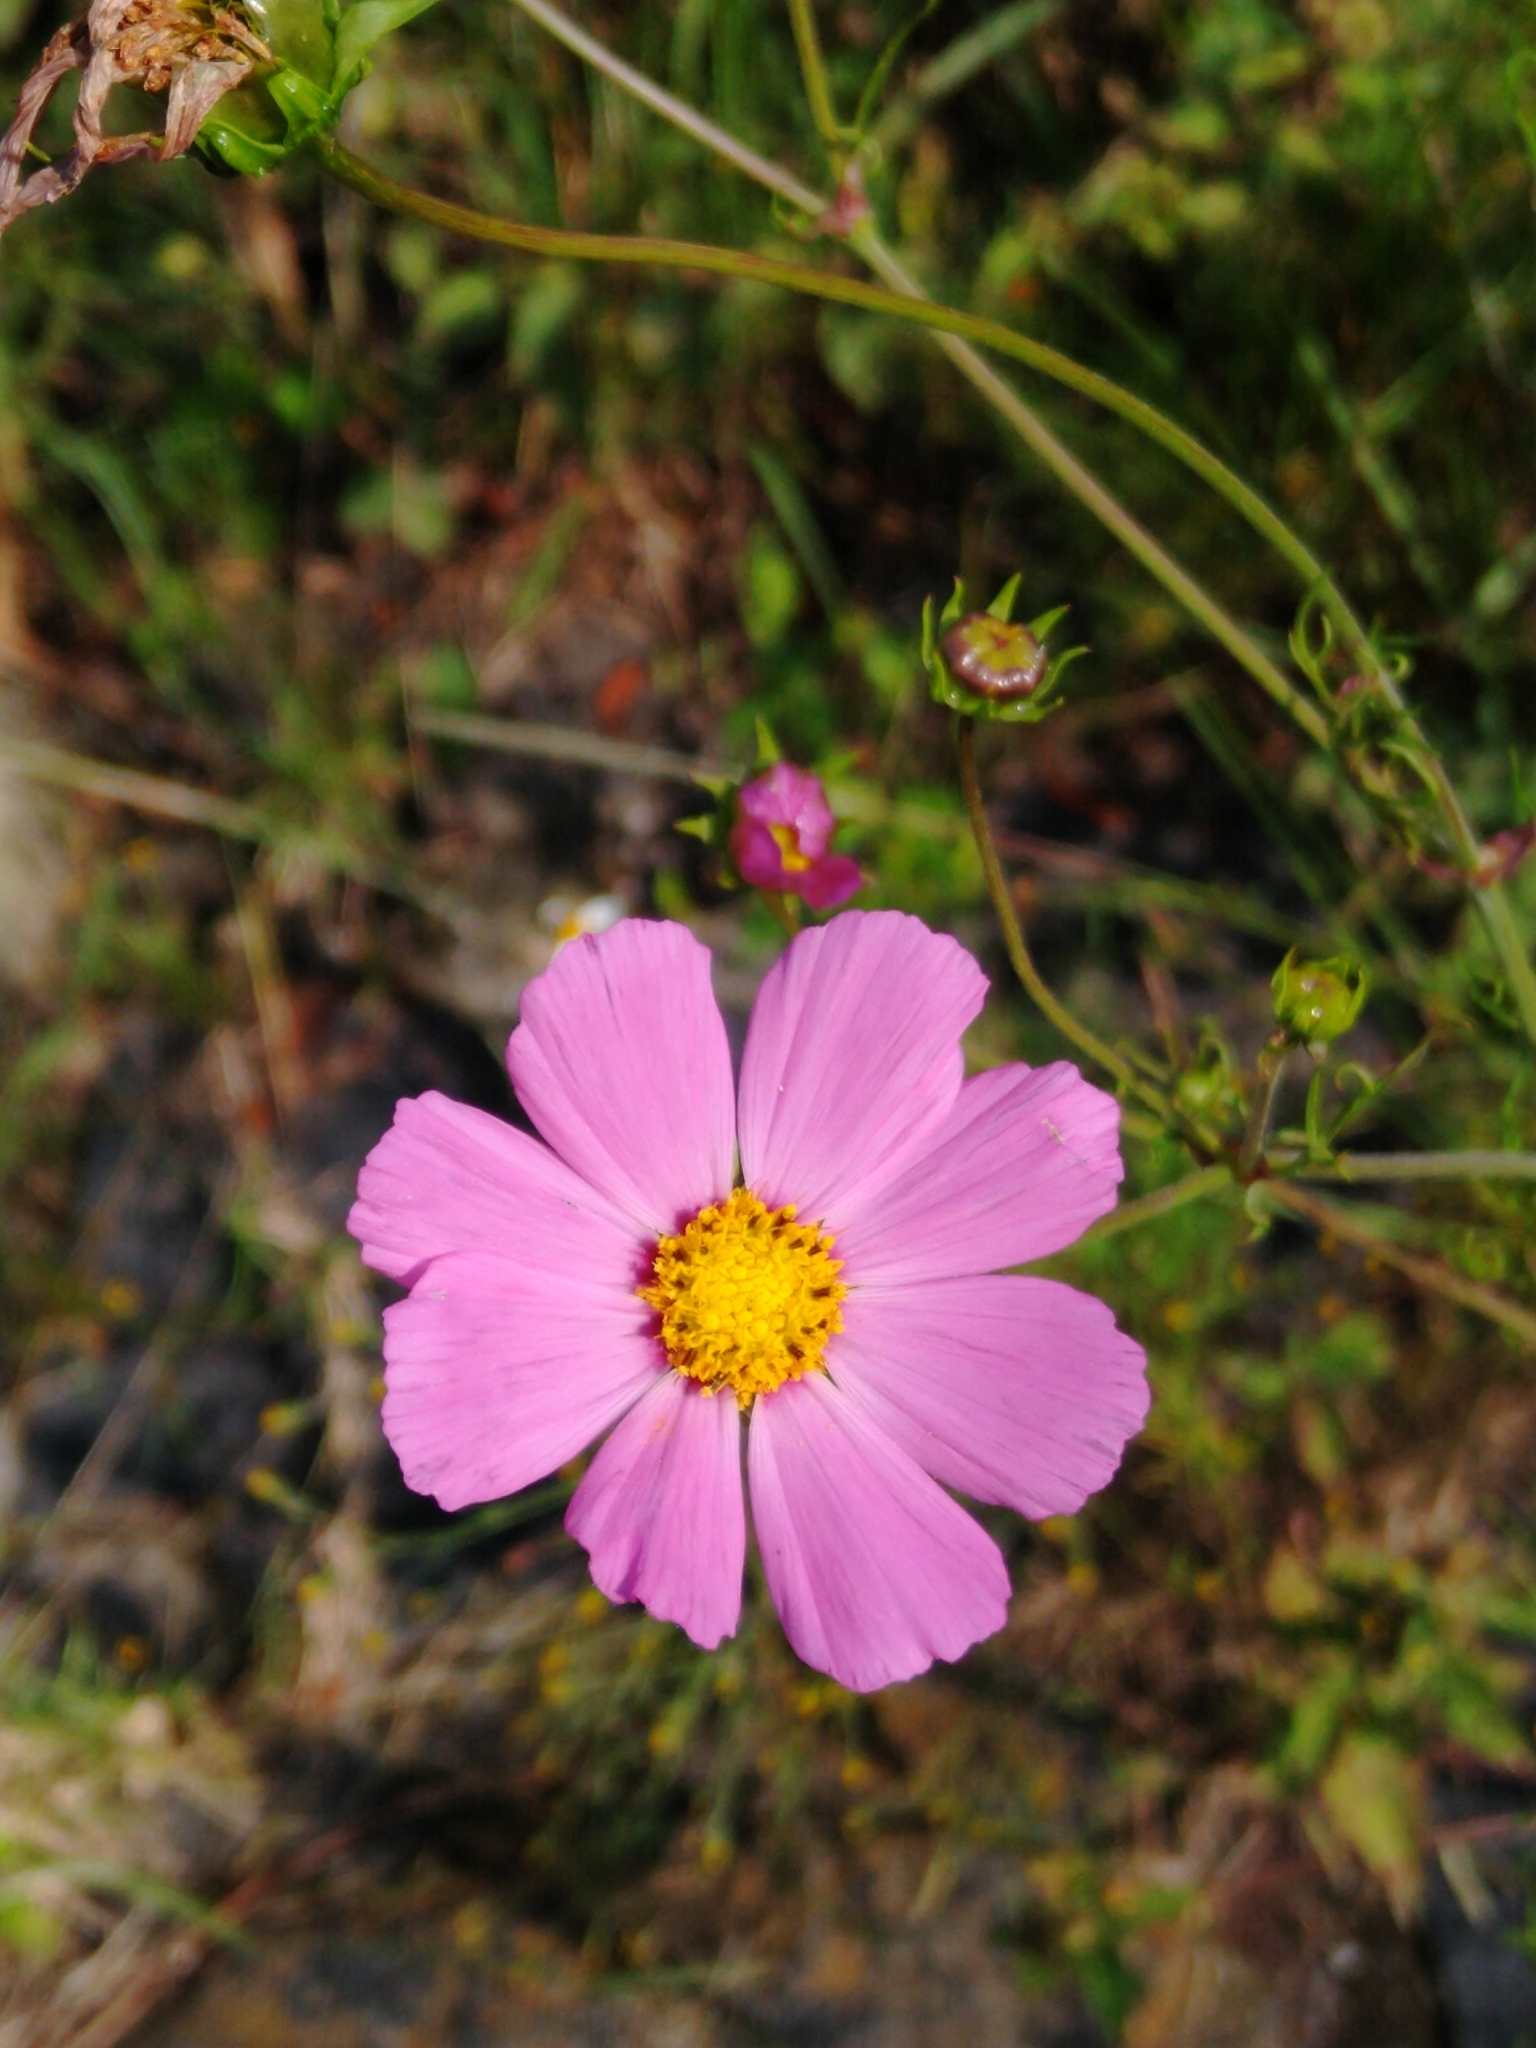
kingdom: Plantae
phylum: Tracheophyta
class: Magnoliopsida
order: Asterales
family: Asteraceae
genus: Cosmos
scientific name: Cosmos bipinnatus
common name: Garden cosmos
